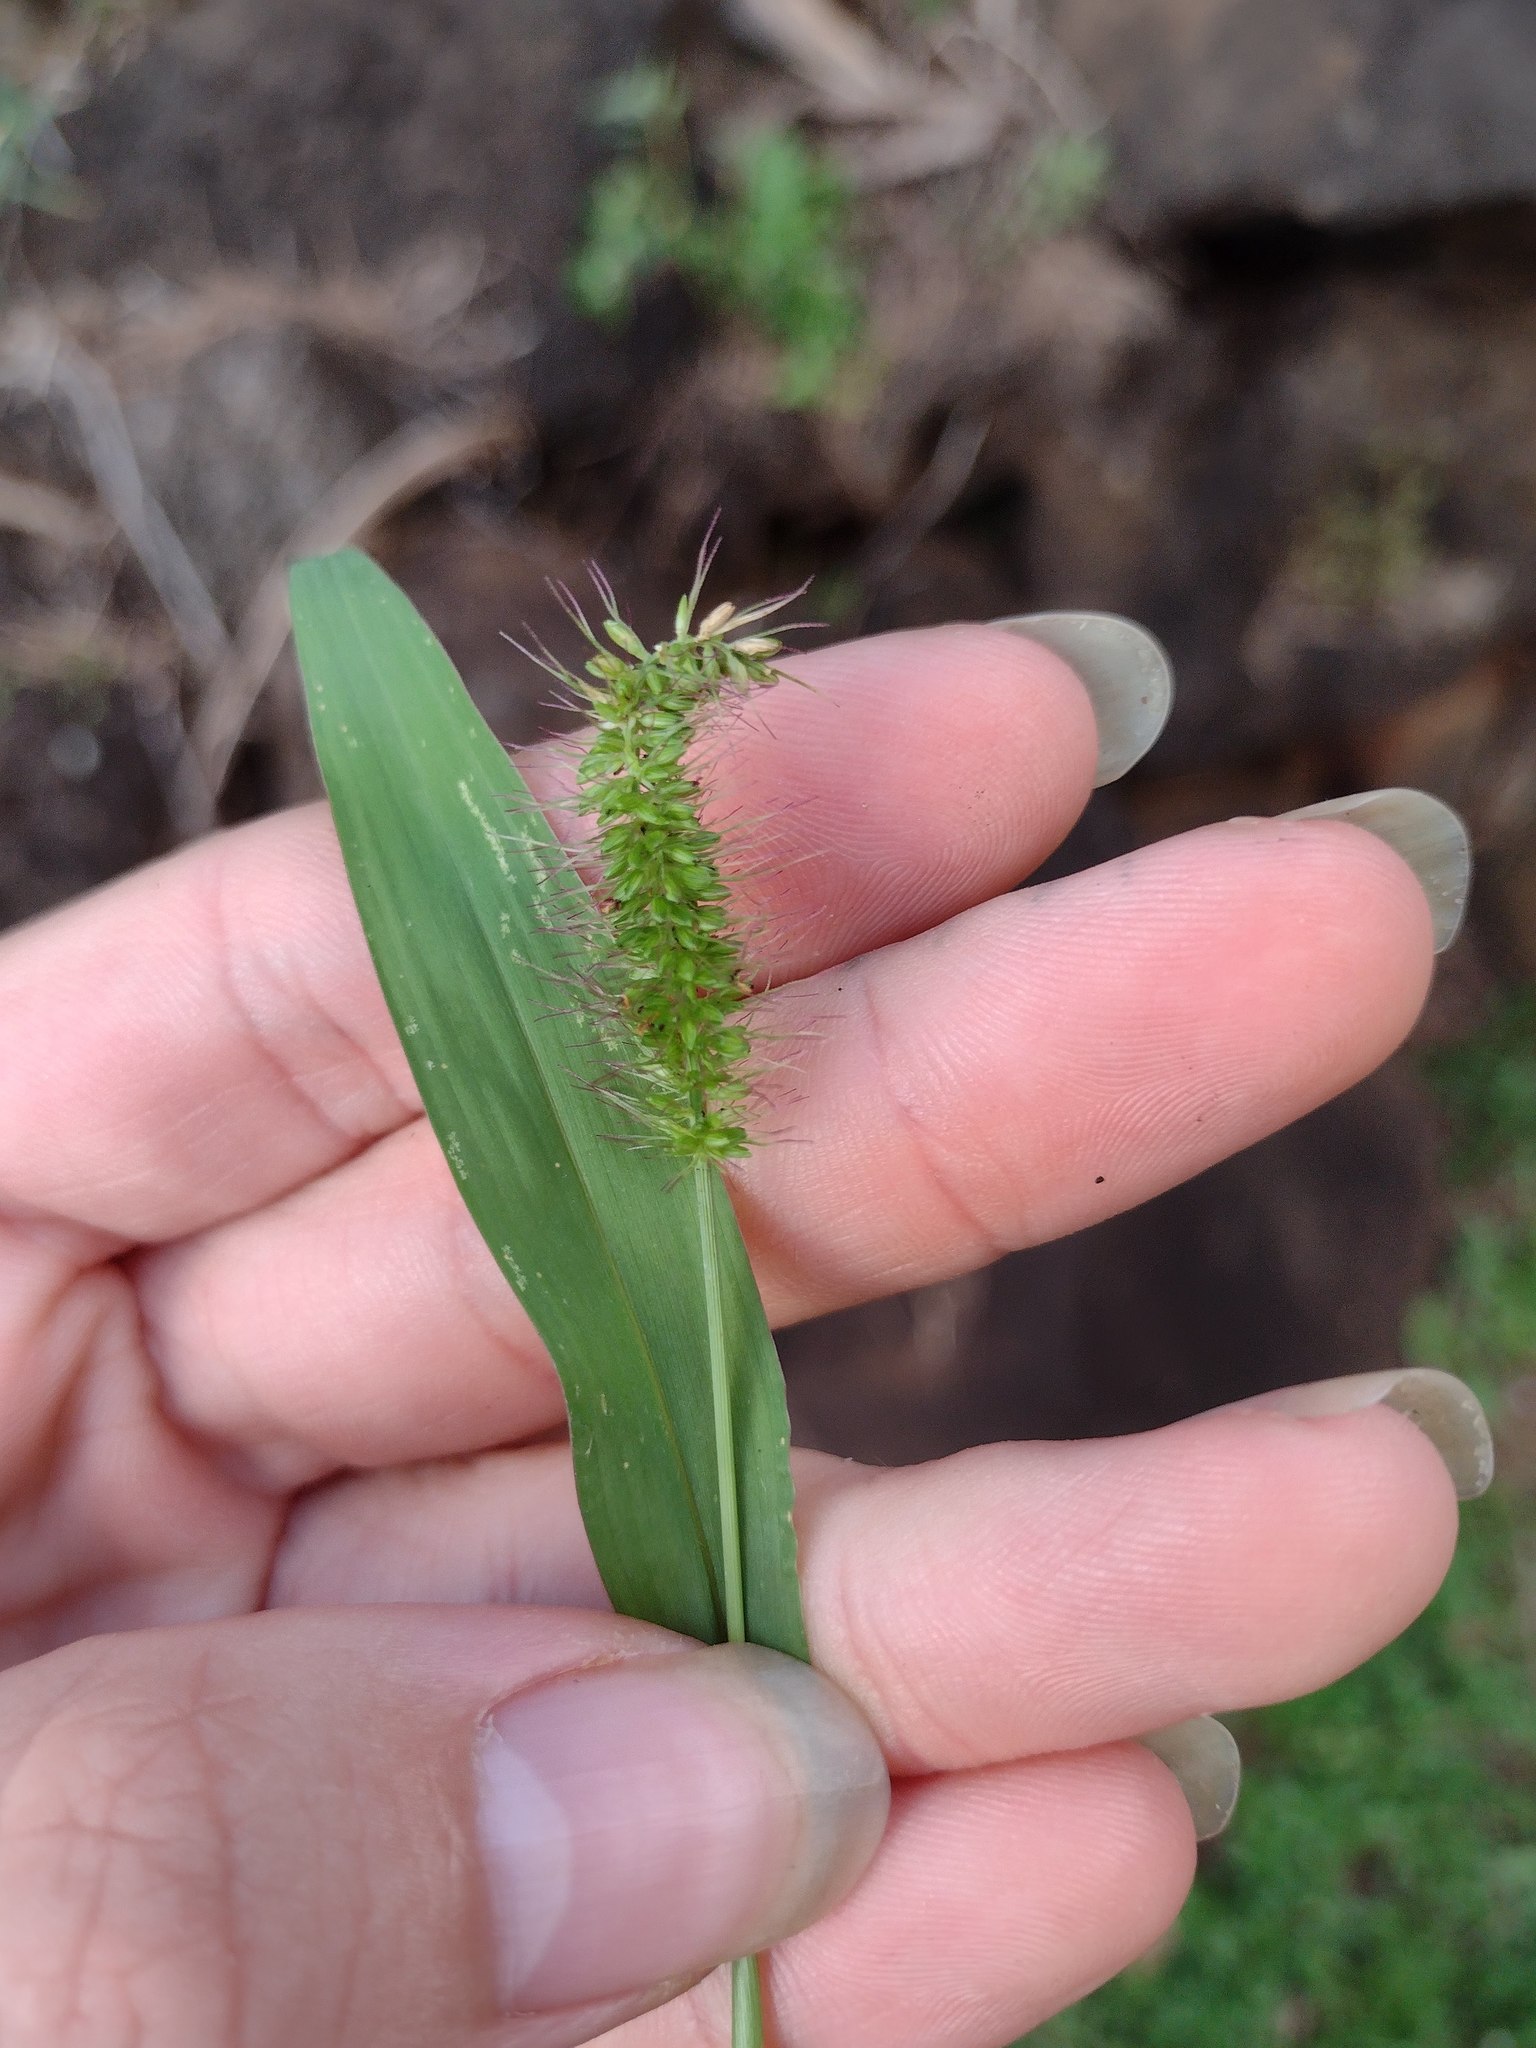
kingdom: Plantae
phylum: Tracheophyta
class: Liliopsida
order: Poales
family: Poaceae
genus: Setaria
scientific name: Setaria adhaerens
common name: Adherent bristle-grass
